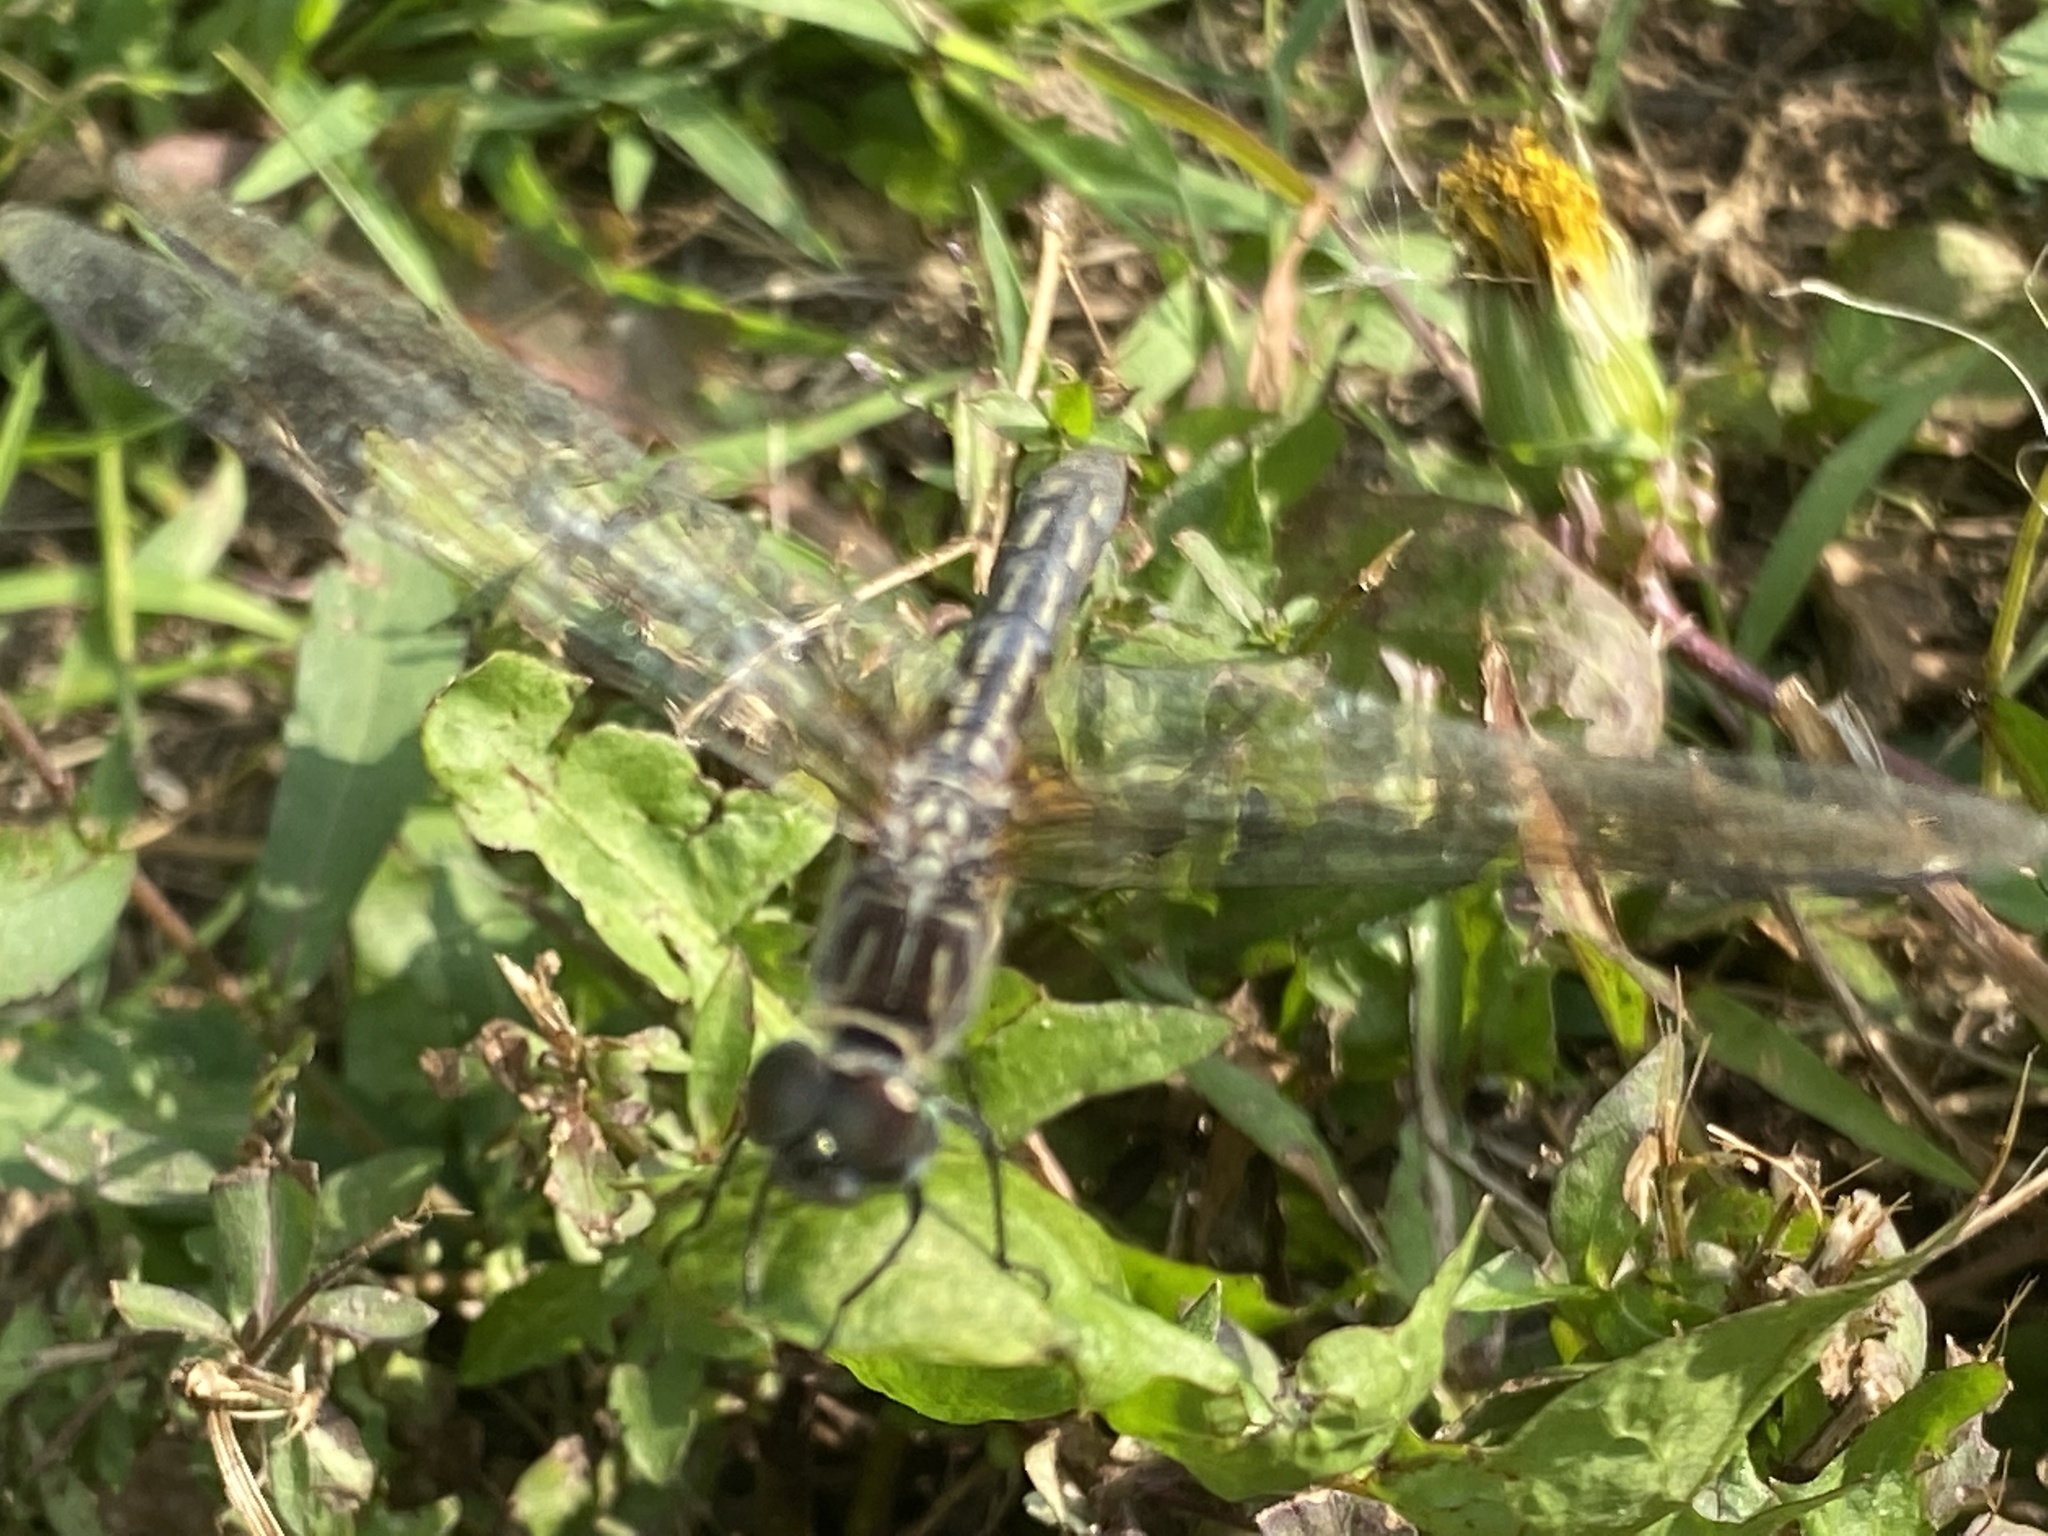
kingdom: Animalia
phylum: Arthropoda
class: Insecta
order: Odonata
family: Libellulidae
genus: Pachydiplax
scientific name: Pachydiplax longipennis
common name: Blue dasher
